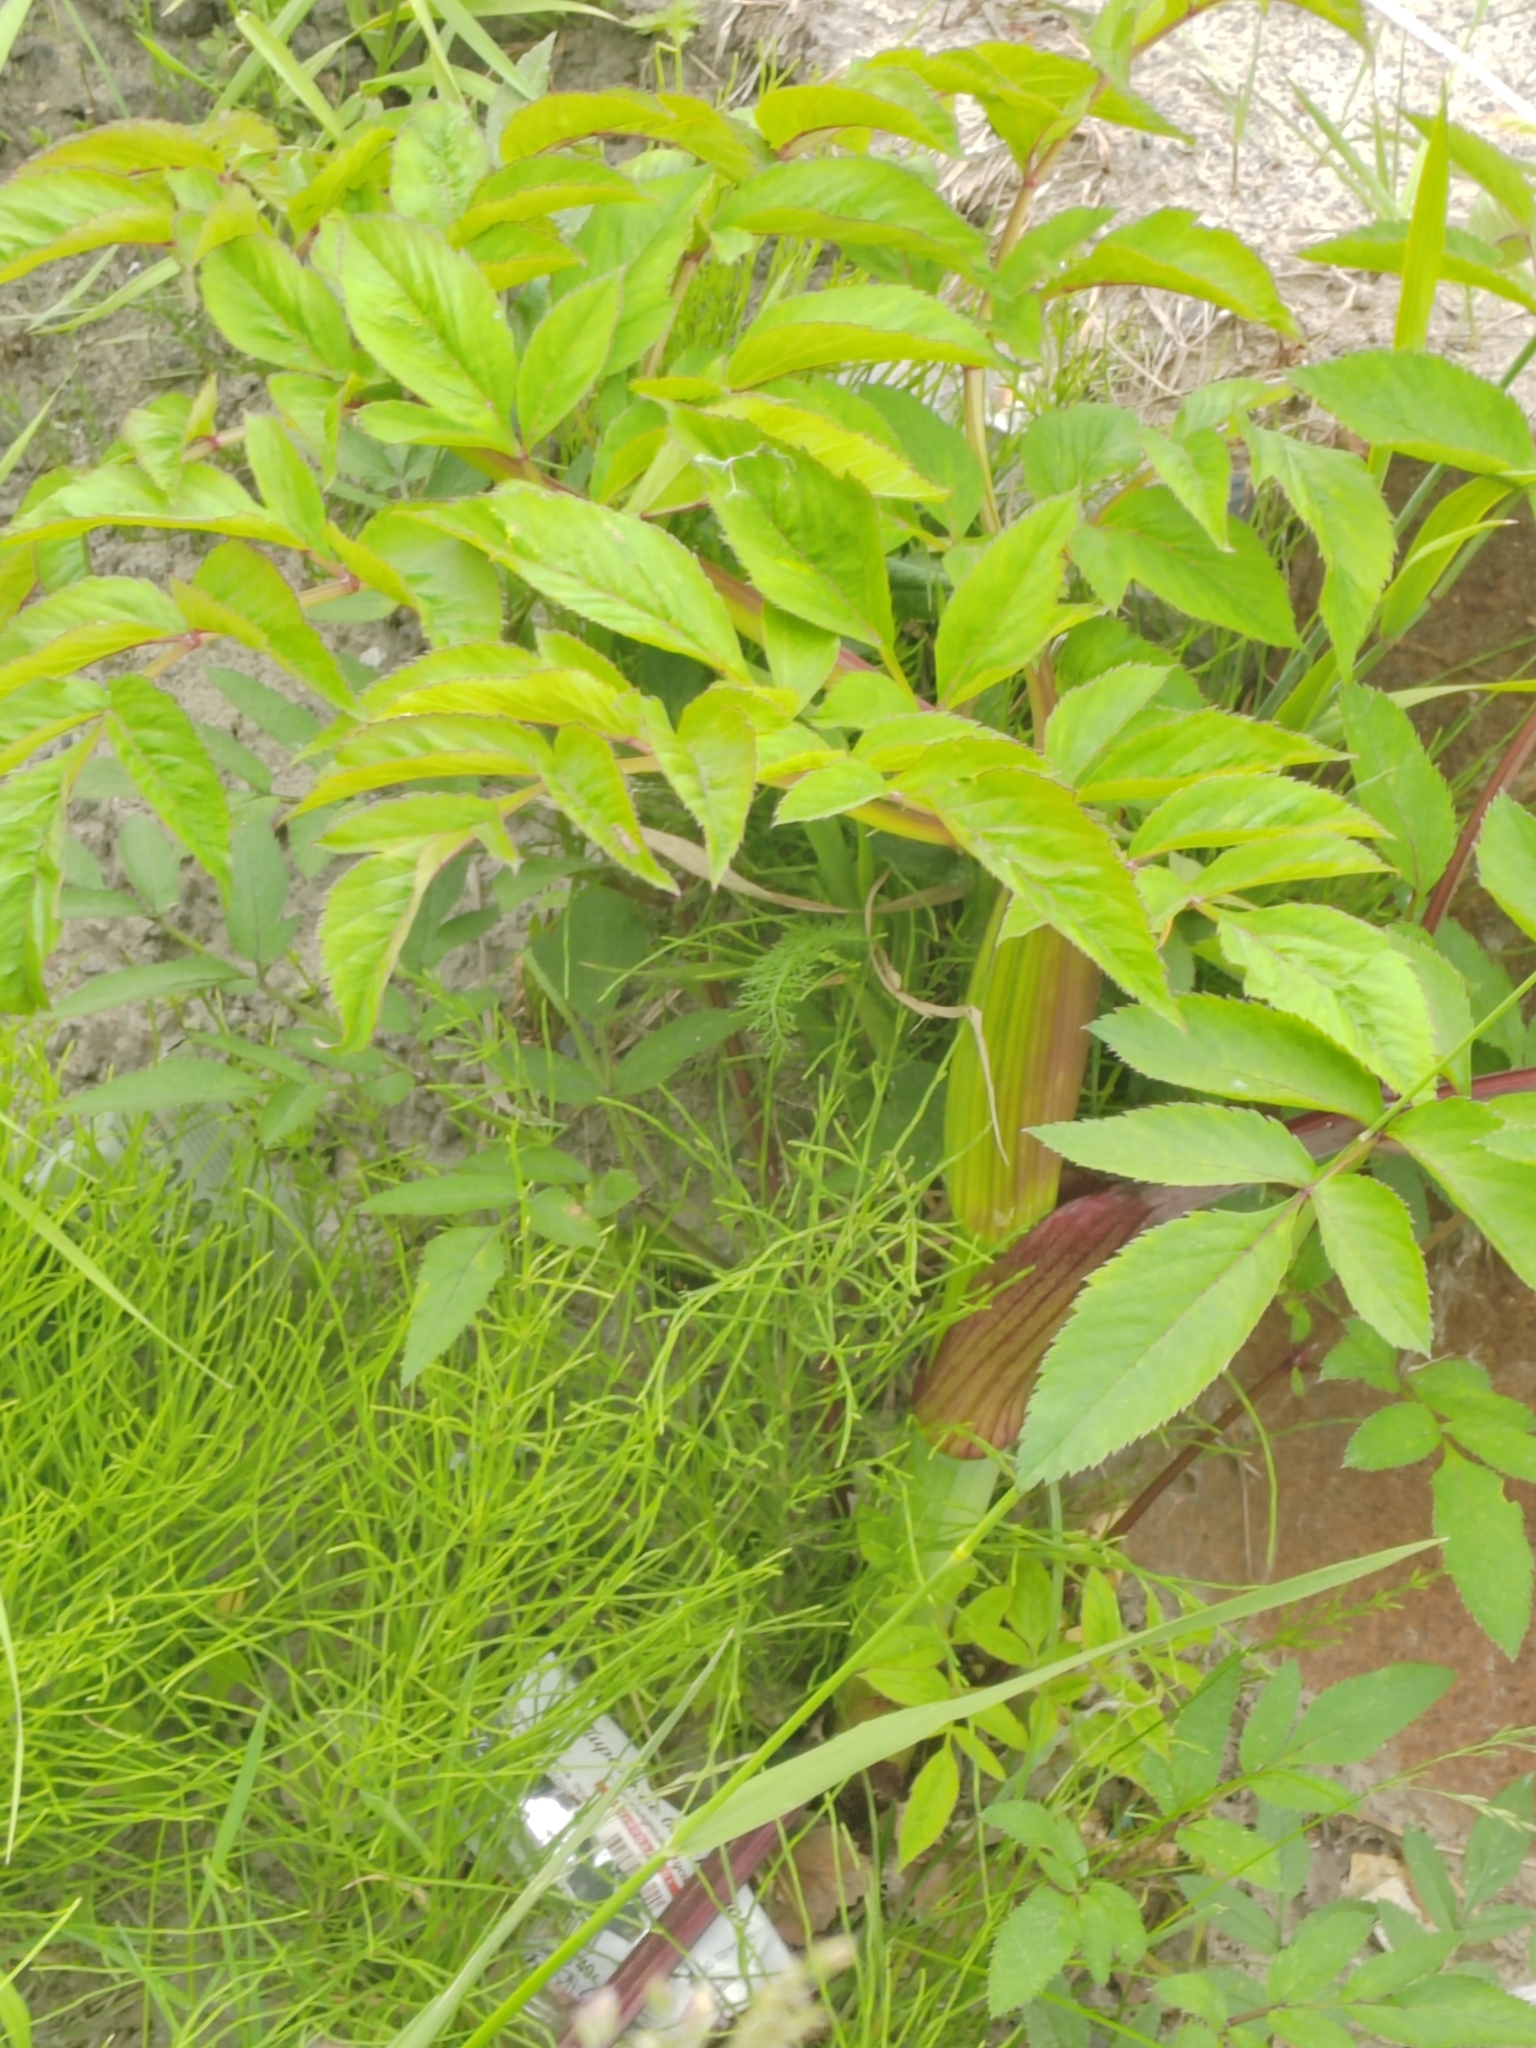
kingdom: Plantae
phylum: Tracheophyta
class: Magnoliopsida
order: Apiales
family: Apiaceae
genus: Angelica
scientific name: Angelica sylvestris
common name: Wild angelica
